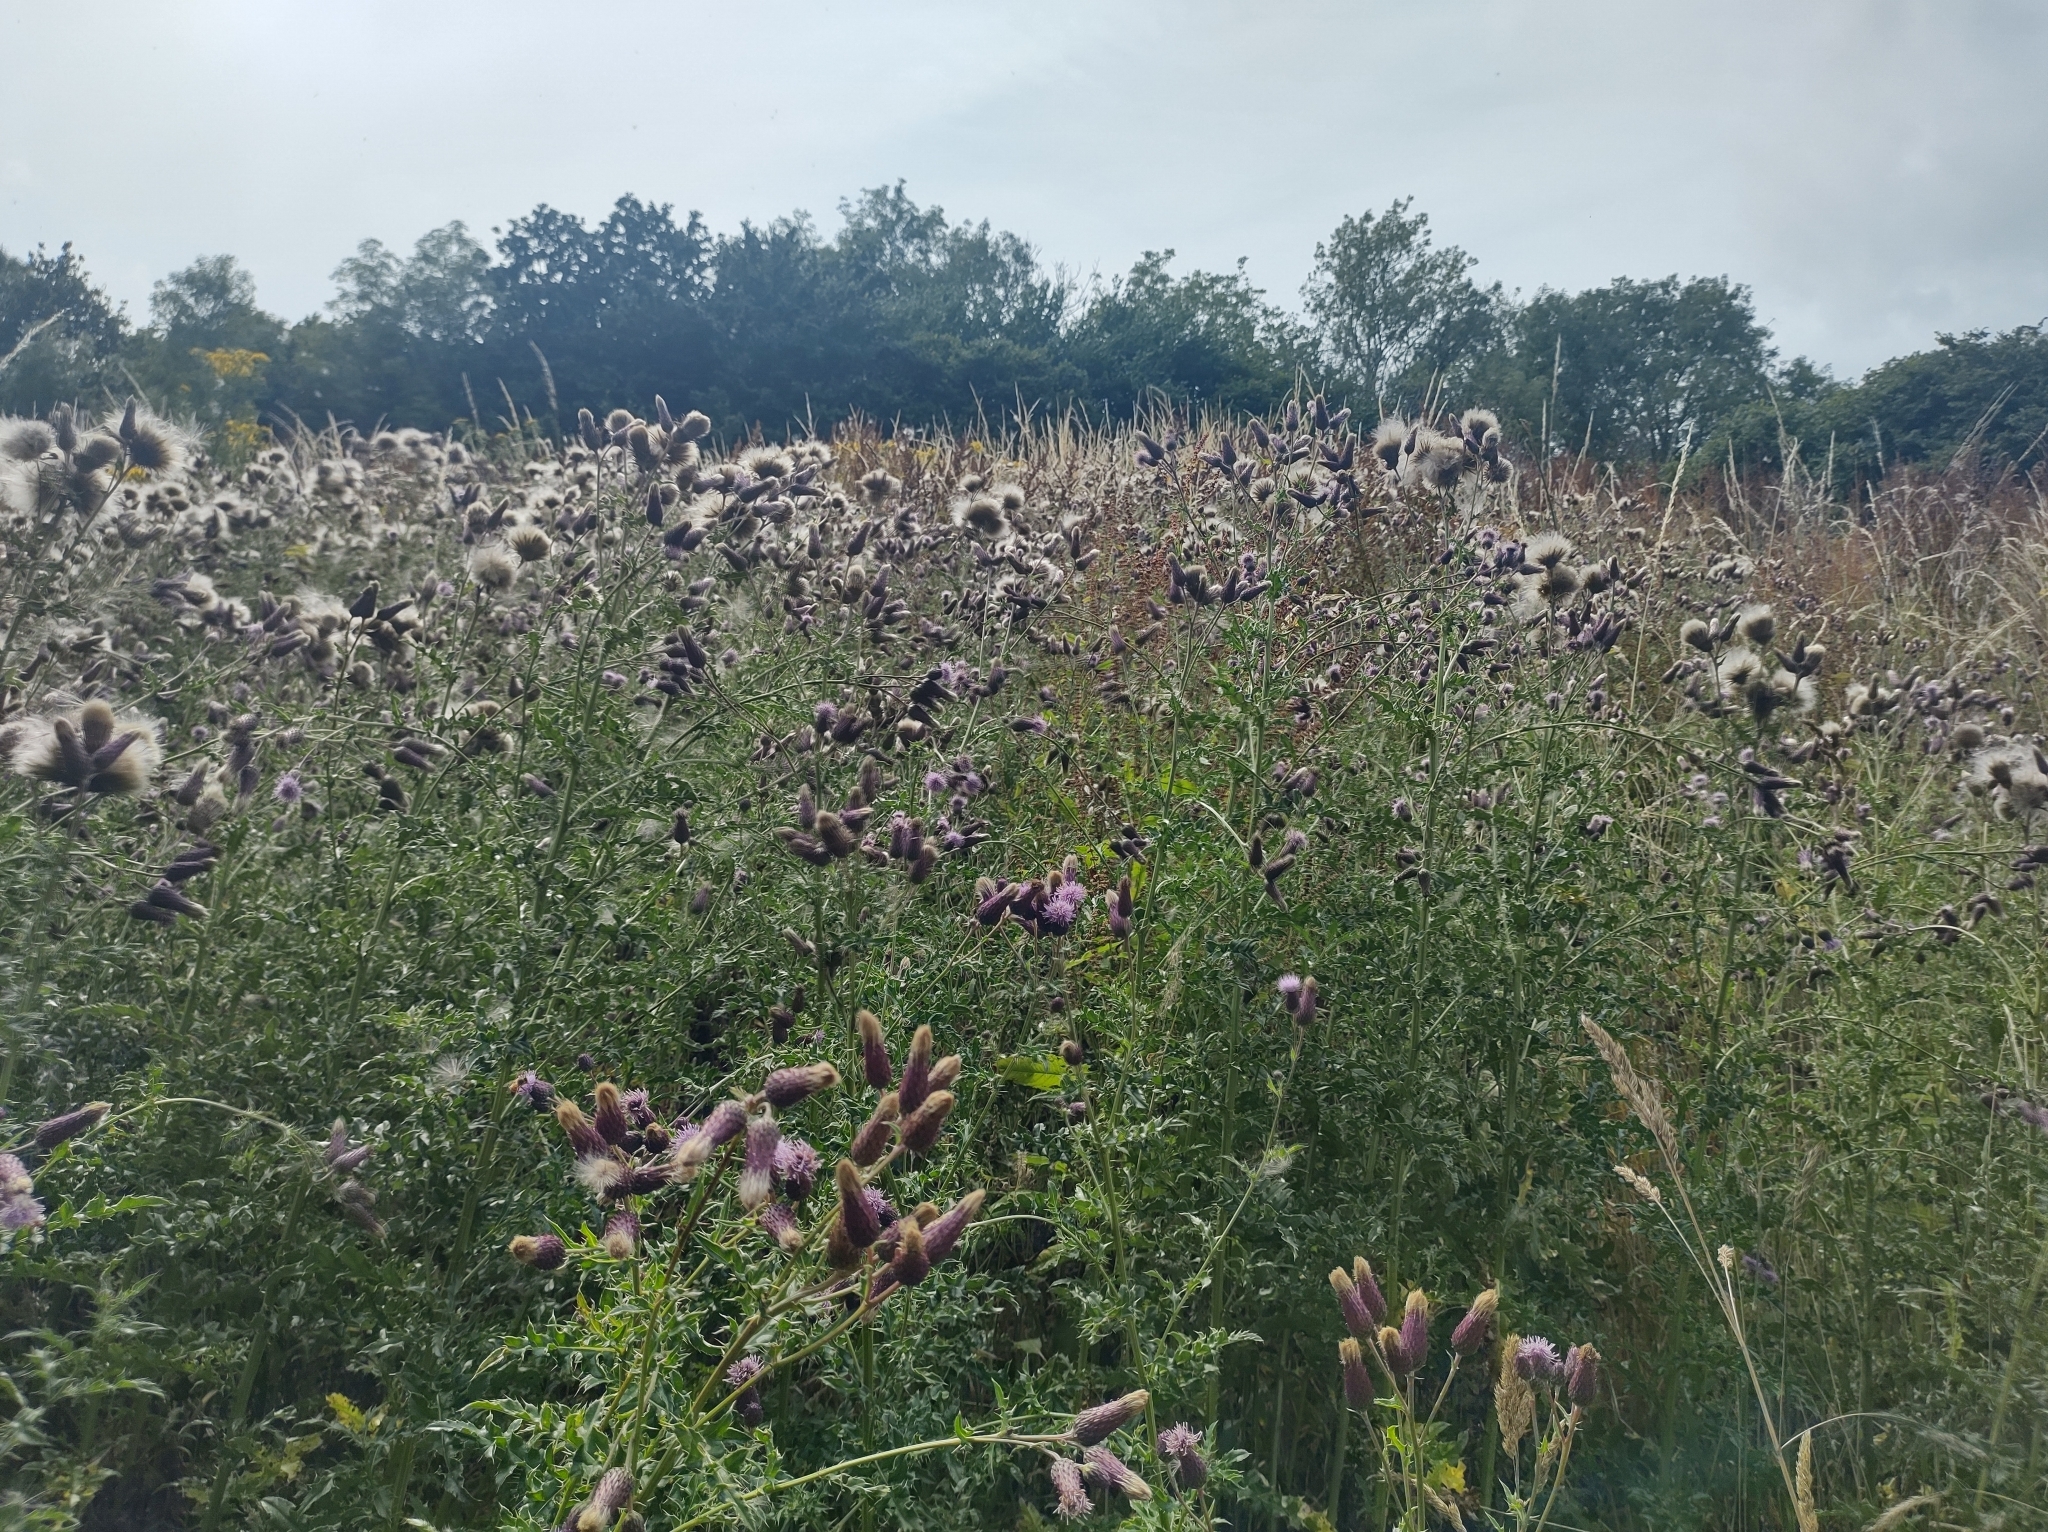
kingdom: Plantae
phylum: Tracheophyta
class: Magnoliopsida
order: Asterales
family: Asteraceae
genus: Cirsium
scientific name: Cirsium arvense
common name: Creeping thistle
